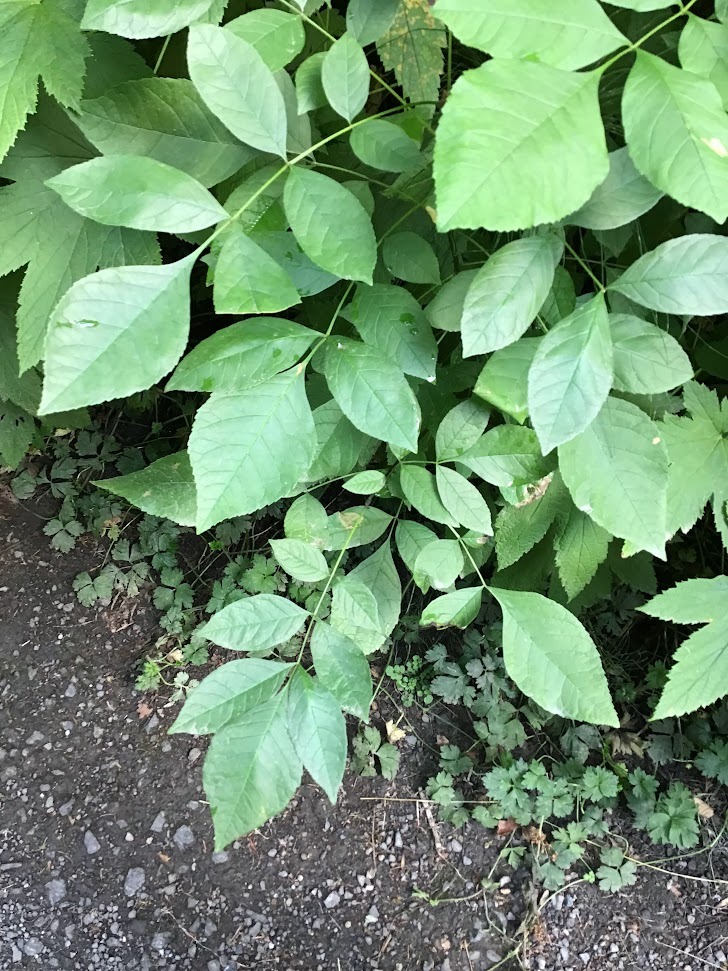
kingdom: Plantae
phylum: Tracheophyta
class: Magnoliopsida
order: Lamiales
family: Oleaceae
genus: Fraxinus
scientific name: Fraxinus latifolia
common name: Oregon ash
